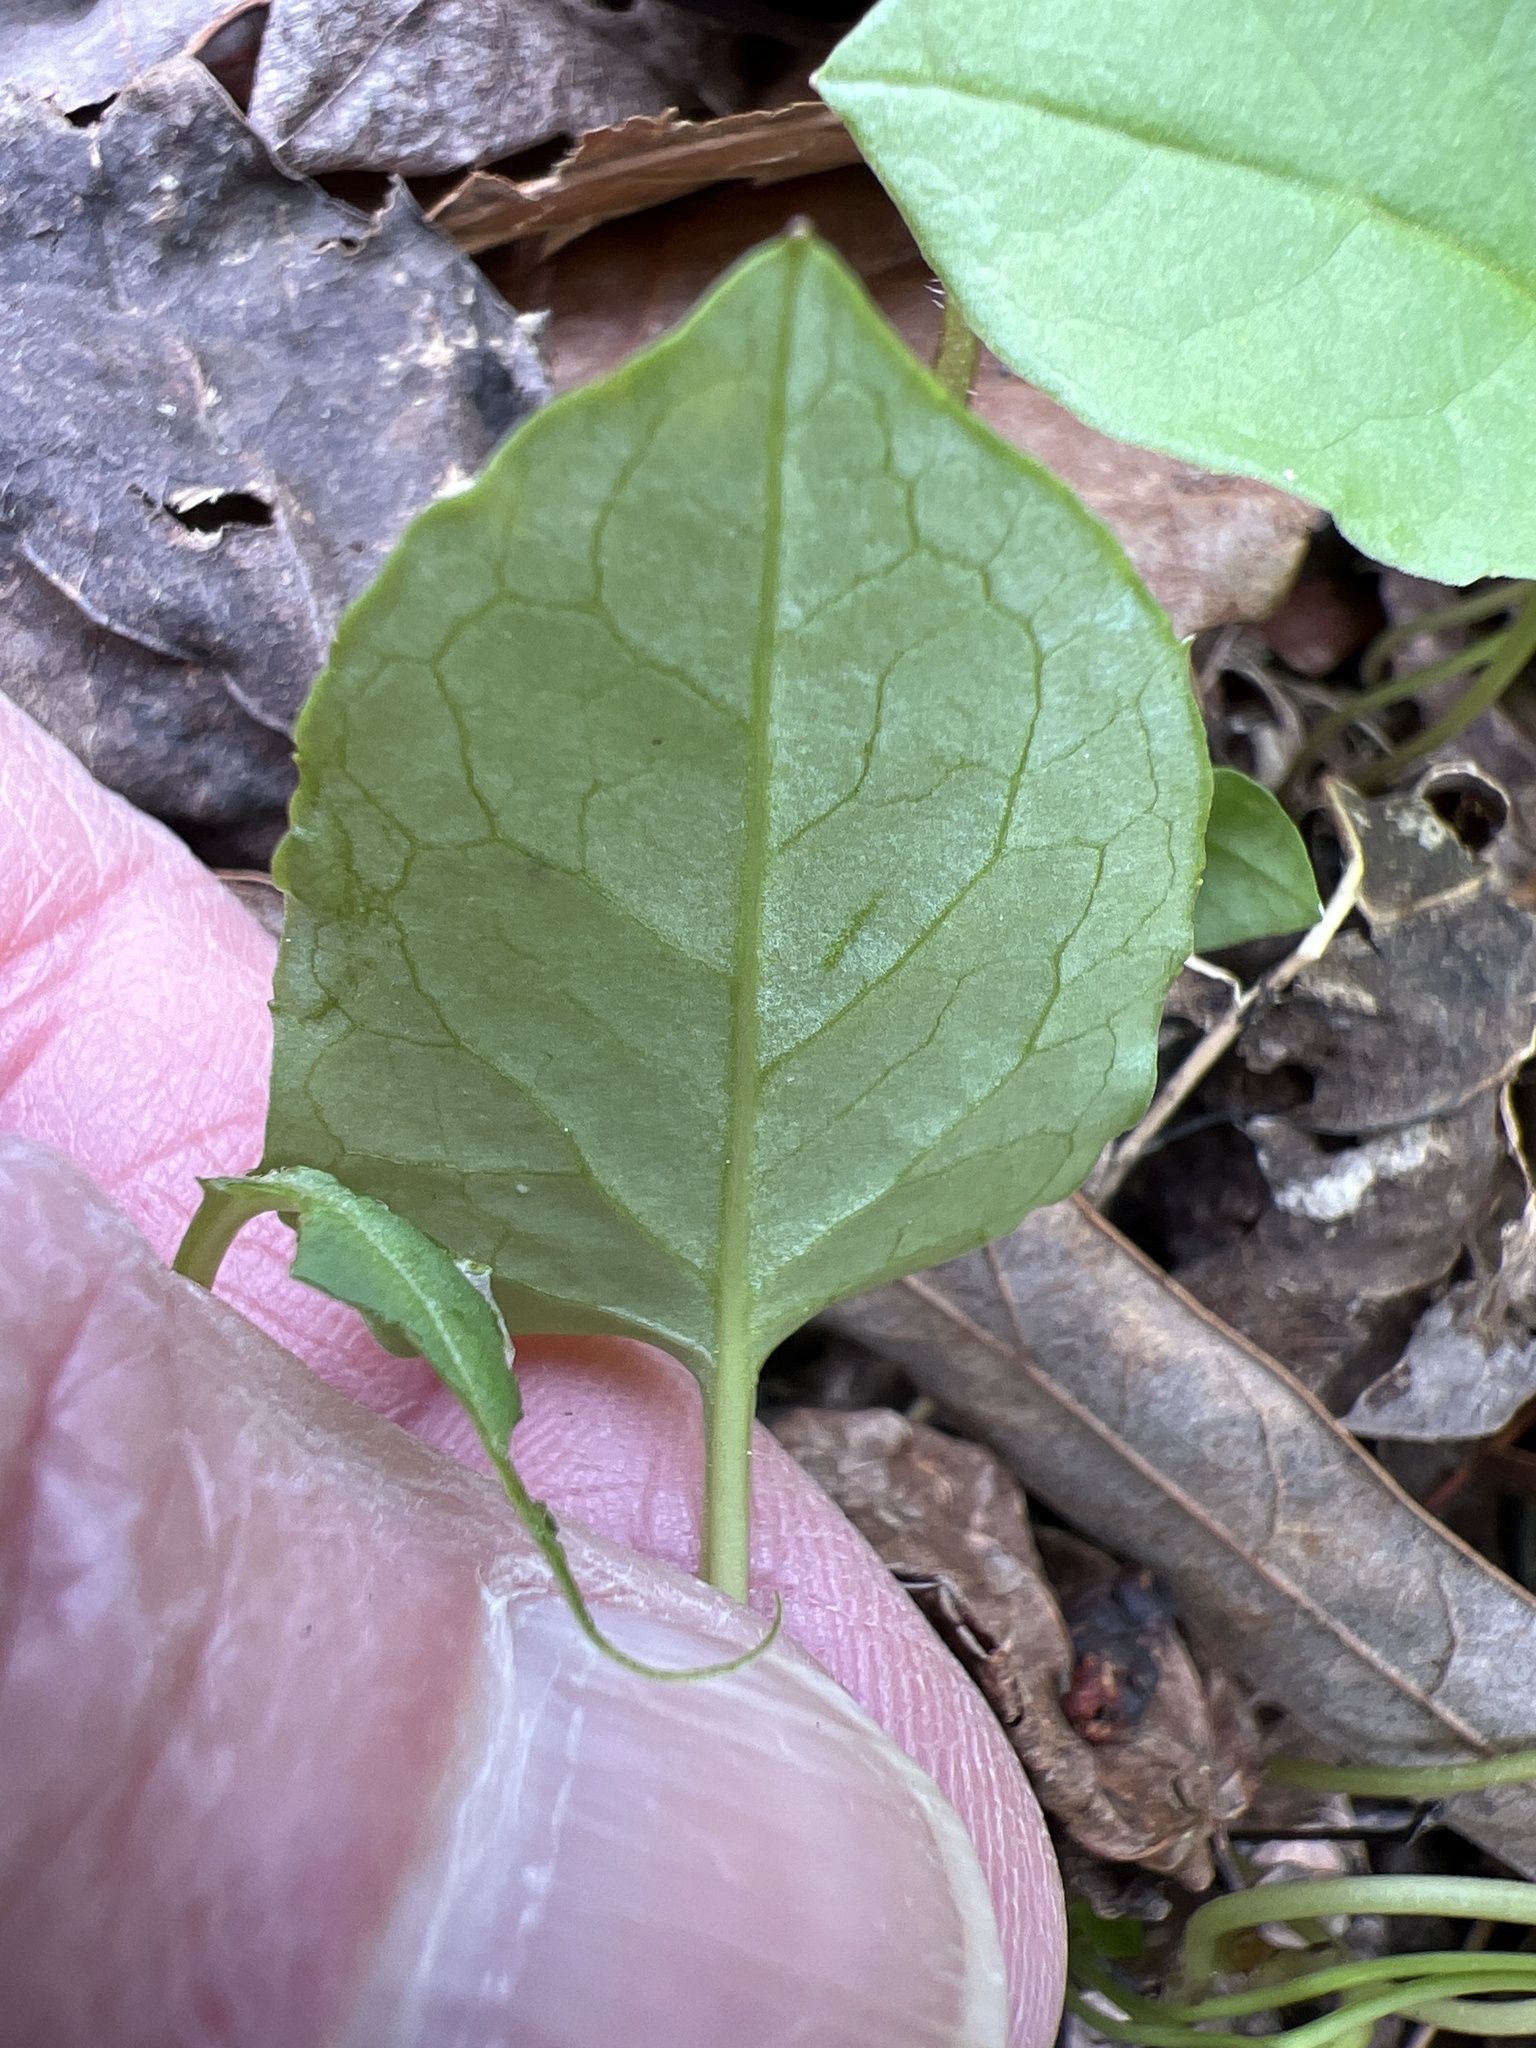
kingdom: Plantae
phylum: Tracheophyta
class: Magnoliopsida
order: Asterales
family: Asteraceae
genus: Nabalus
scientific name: Nabalus altissima
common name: Tall rattlesnakeroot
